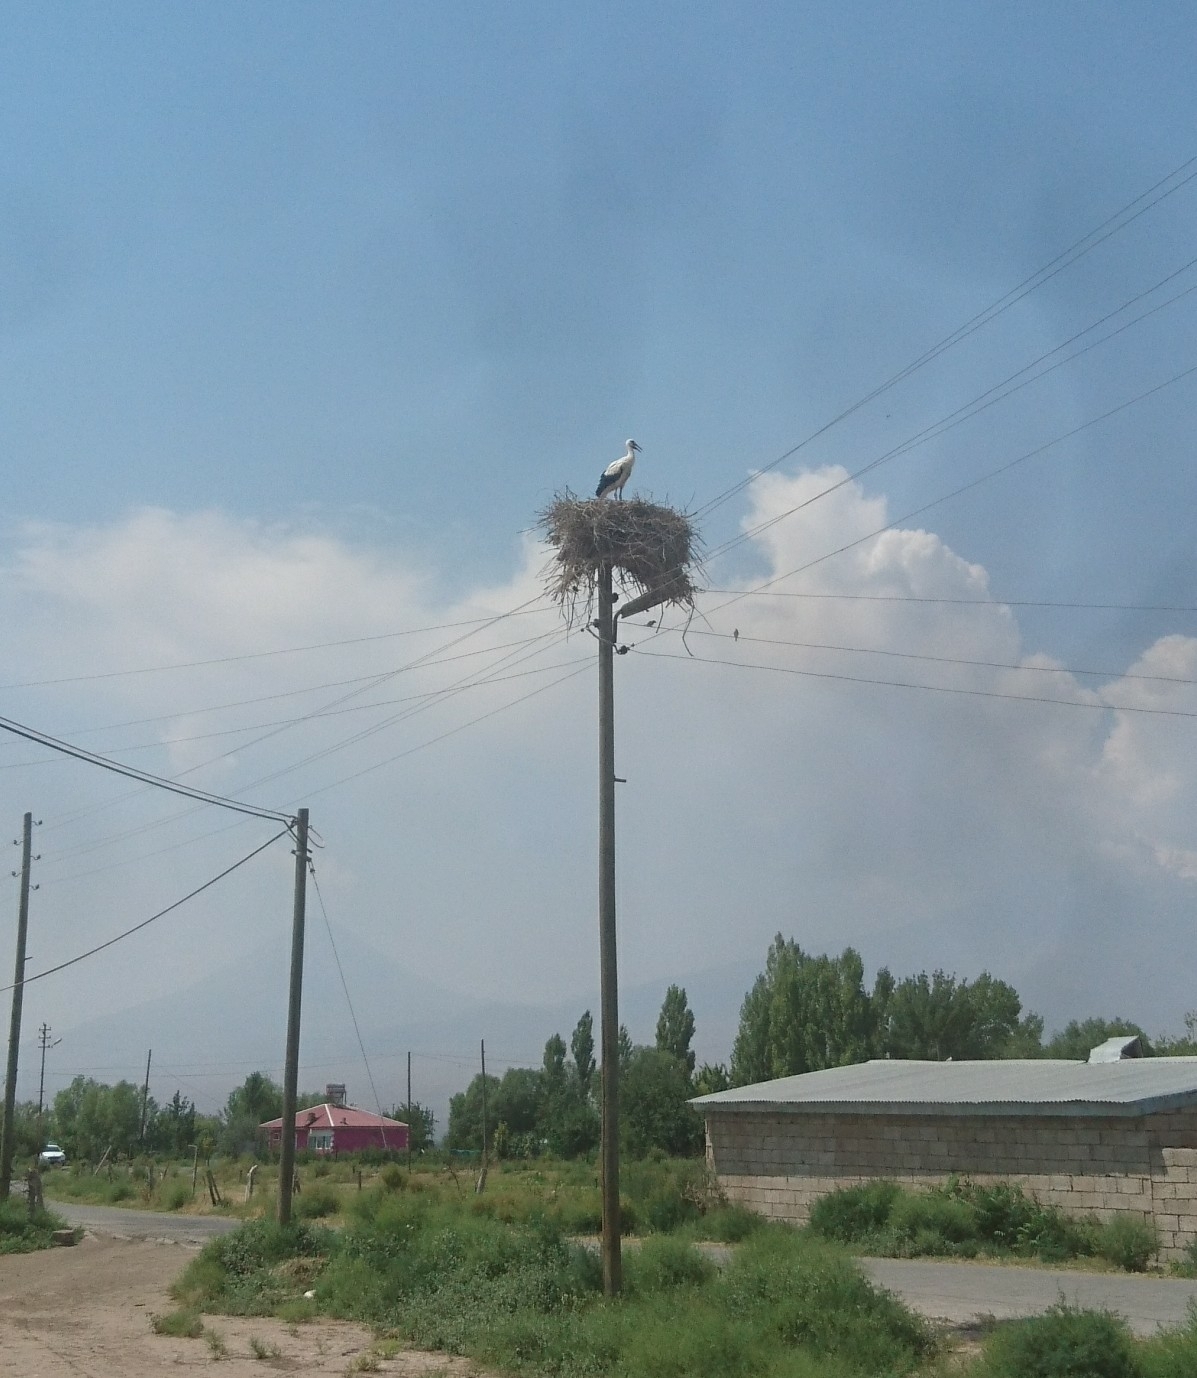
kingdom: Animalia
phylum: Chordata
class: Aves
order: Ciconiiformes
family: Ciconiidae
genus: Ciconia
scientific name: Ciconia ciconia
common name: White stork
